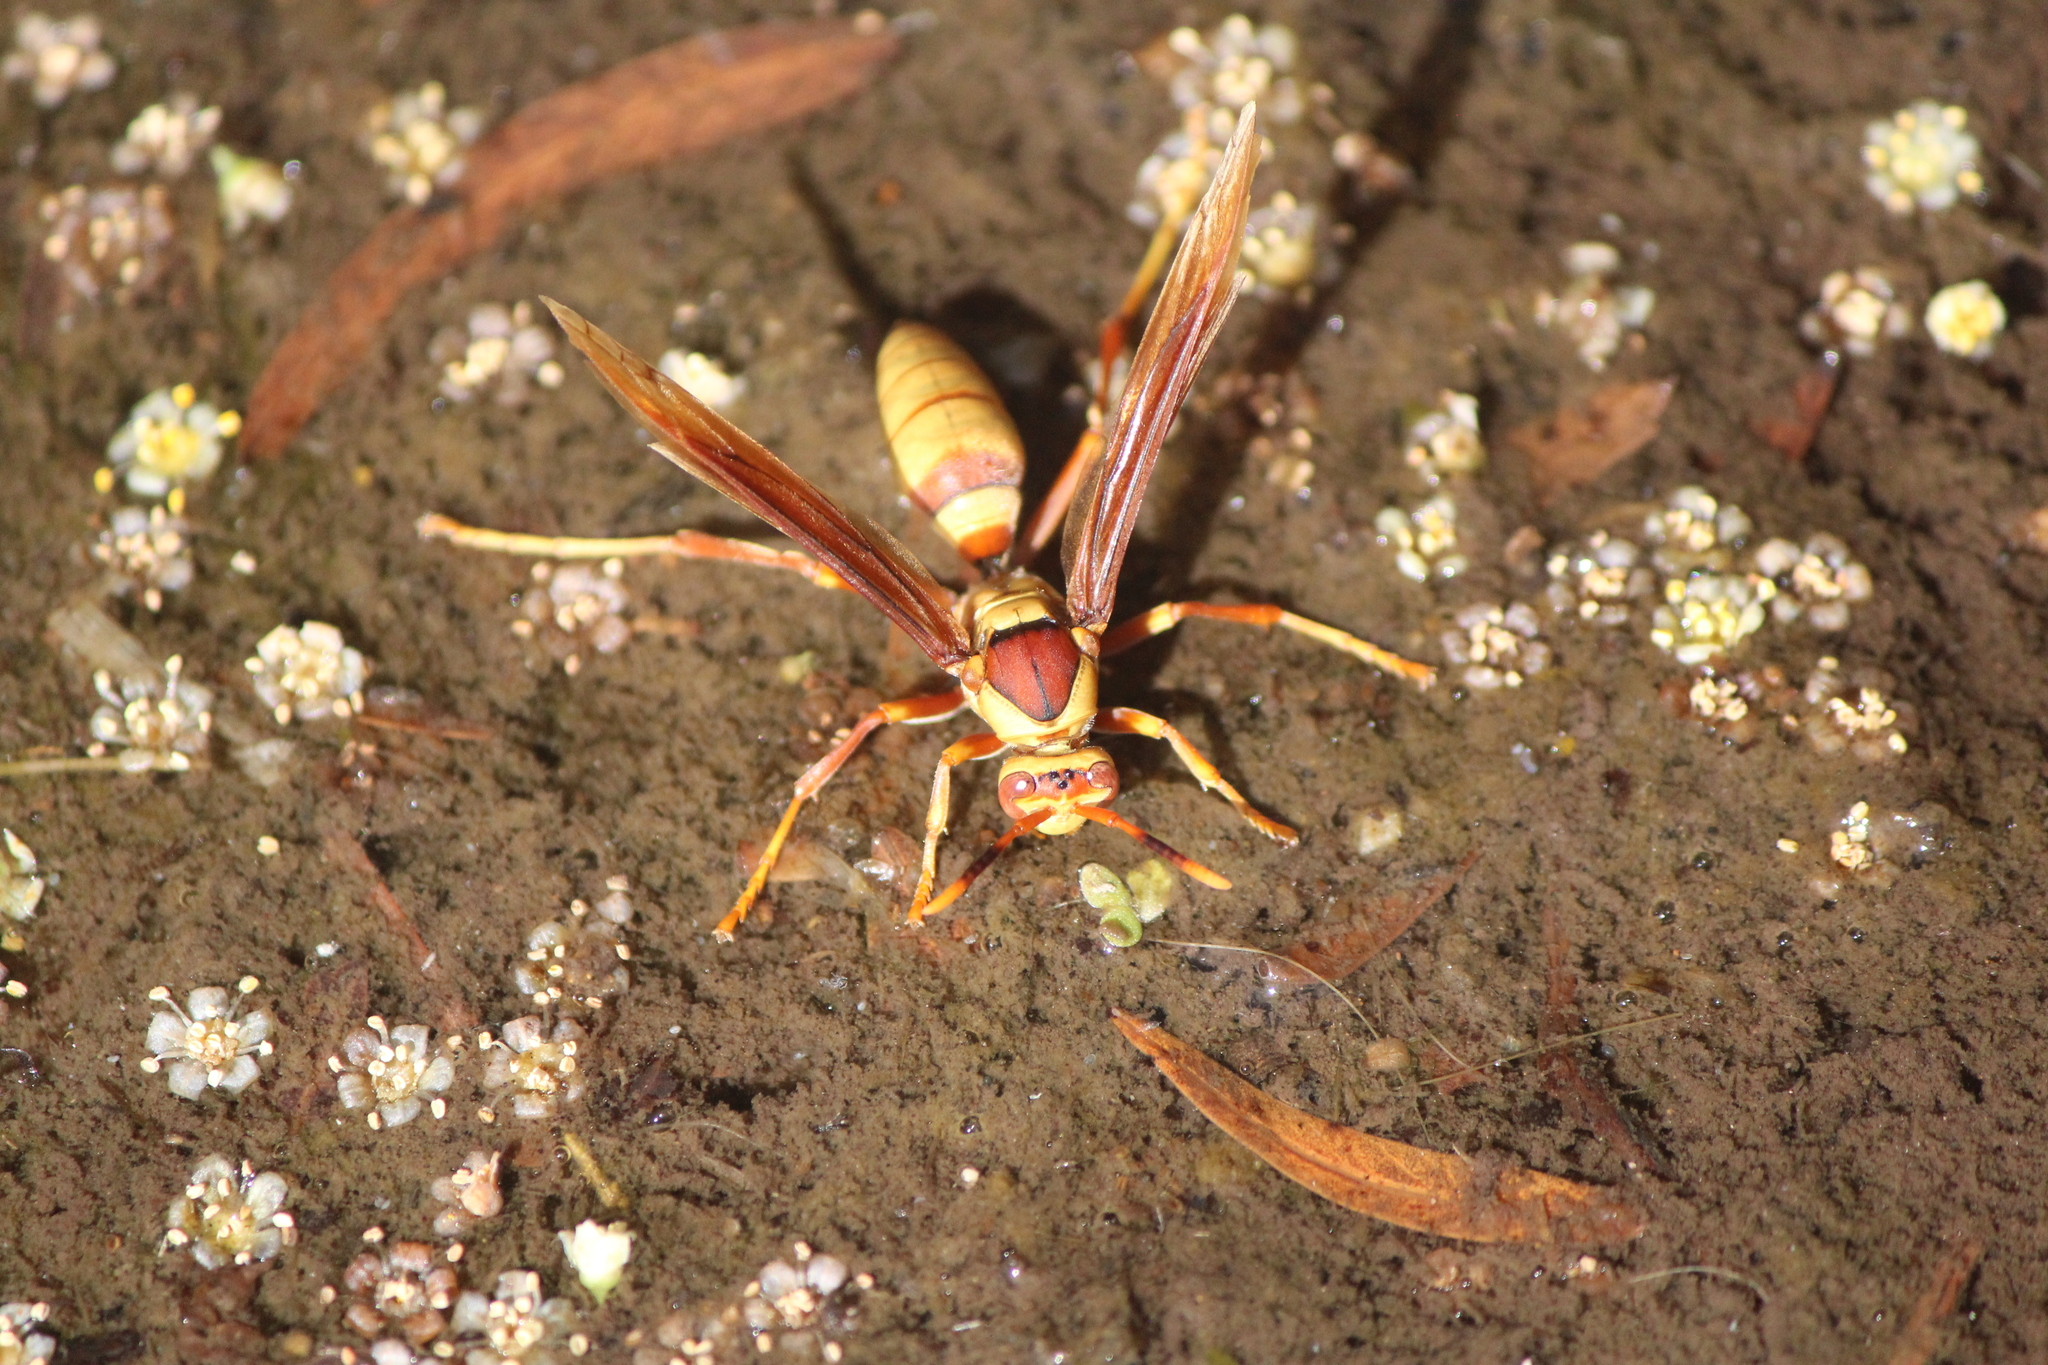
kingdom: Animalia
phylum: Arthropoda
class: Insecta
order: Hymenoptera
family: Eumenidae
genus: Polistes
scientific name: Polistes major
